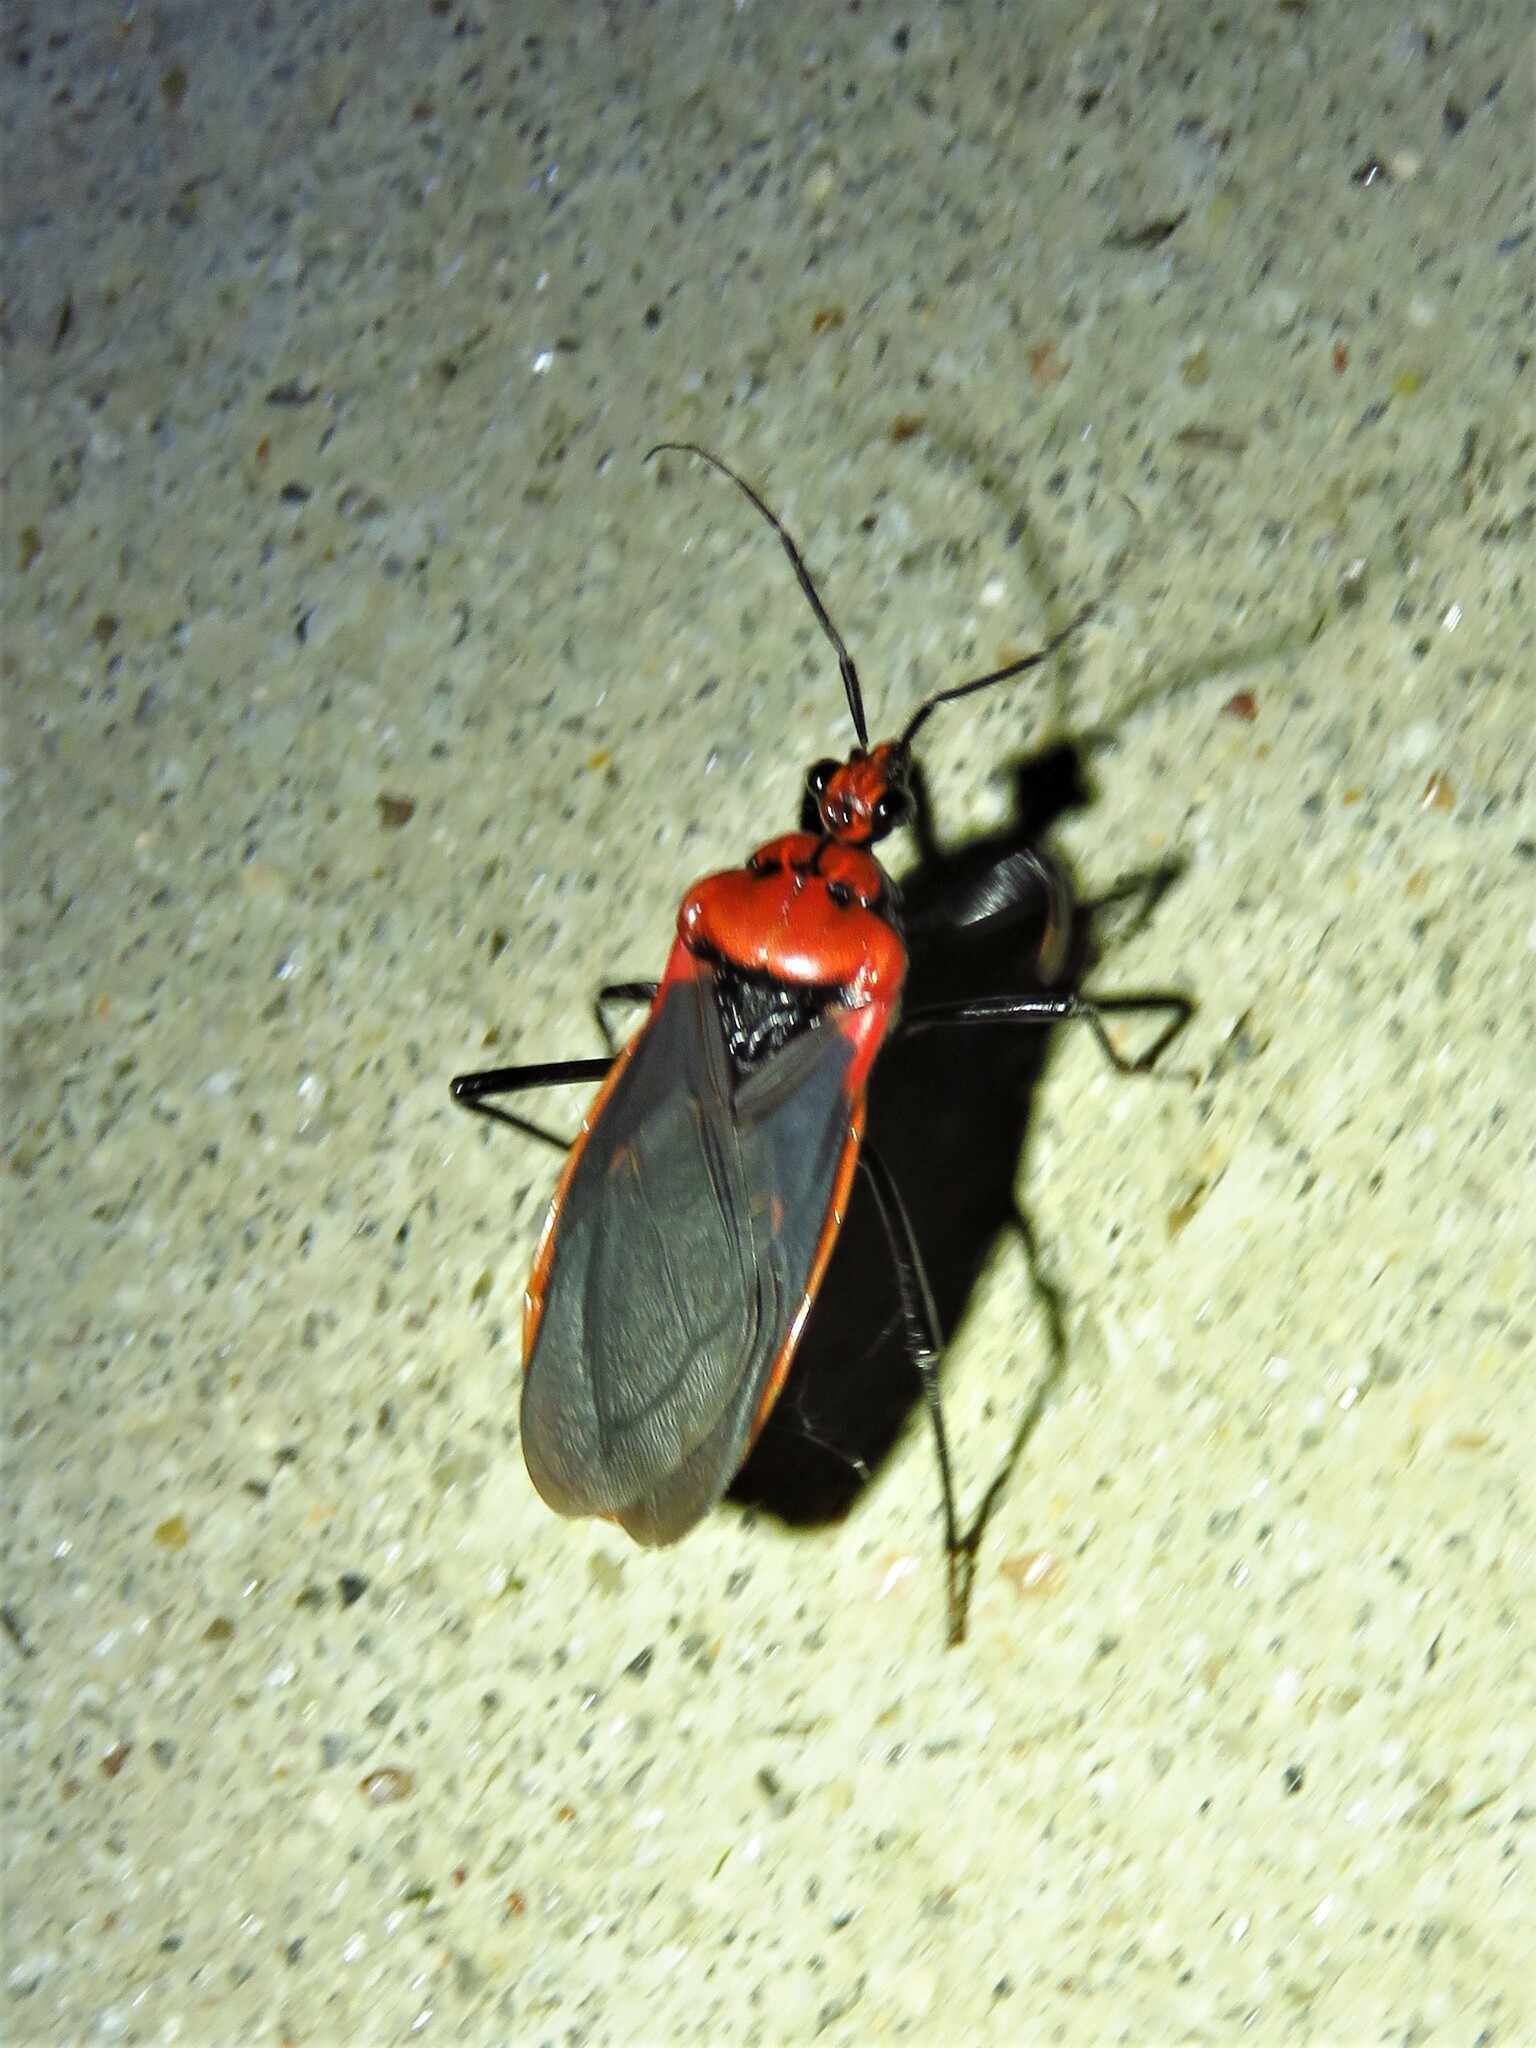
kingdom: Animalia
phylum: Arthropoda
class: Insecta
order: Hemiptera
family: Reduviidae
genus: Rhiginia
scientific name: Rhiginia cinctiventris
